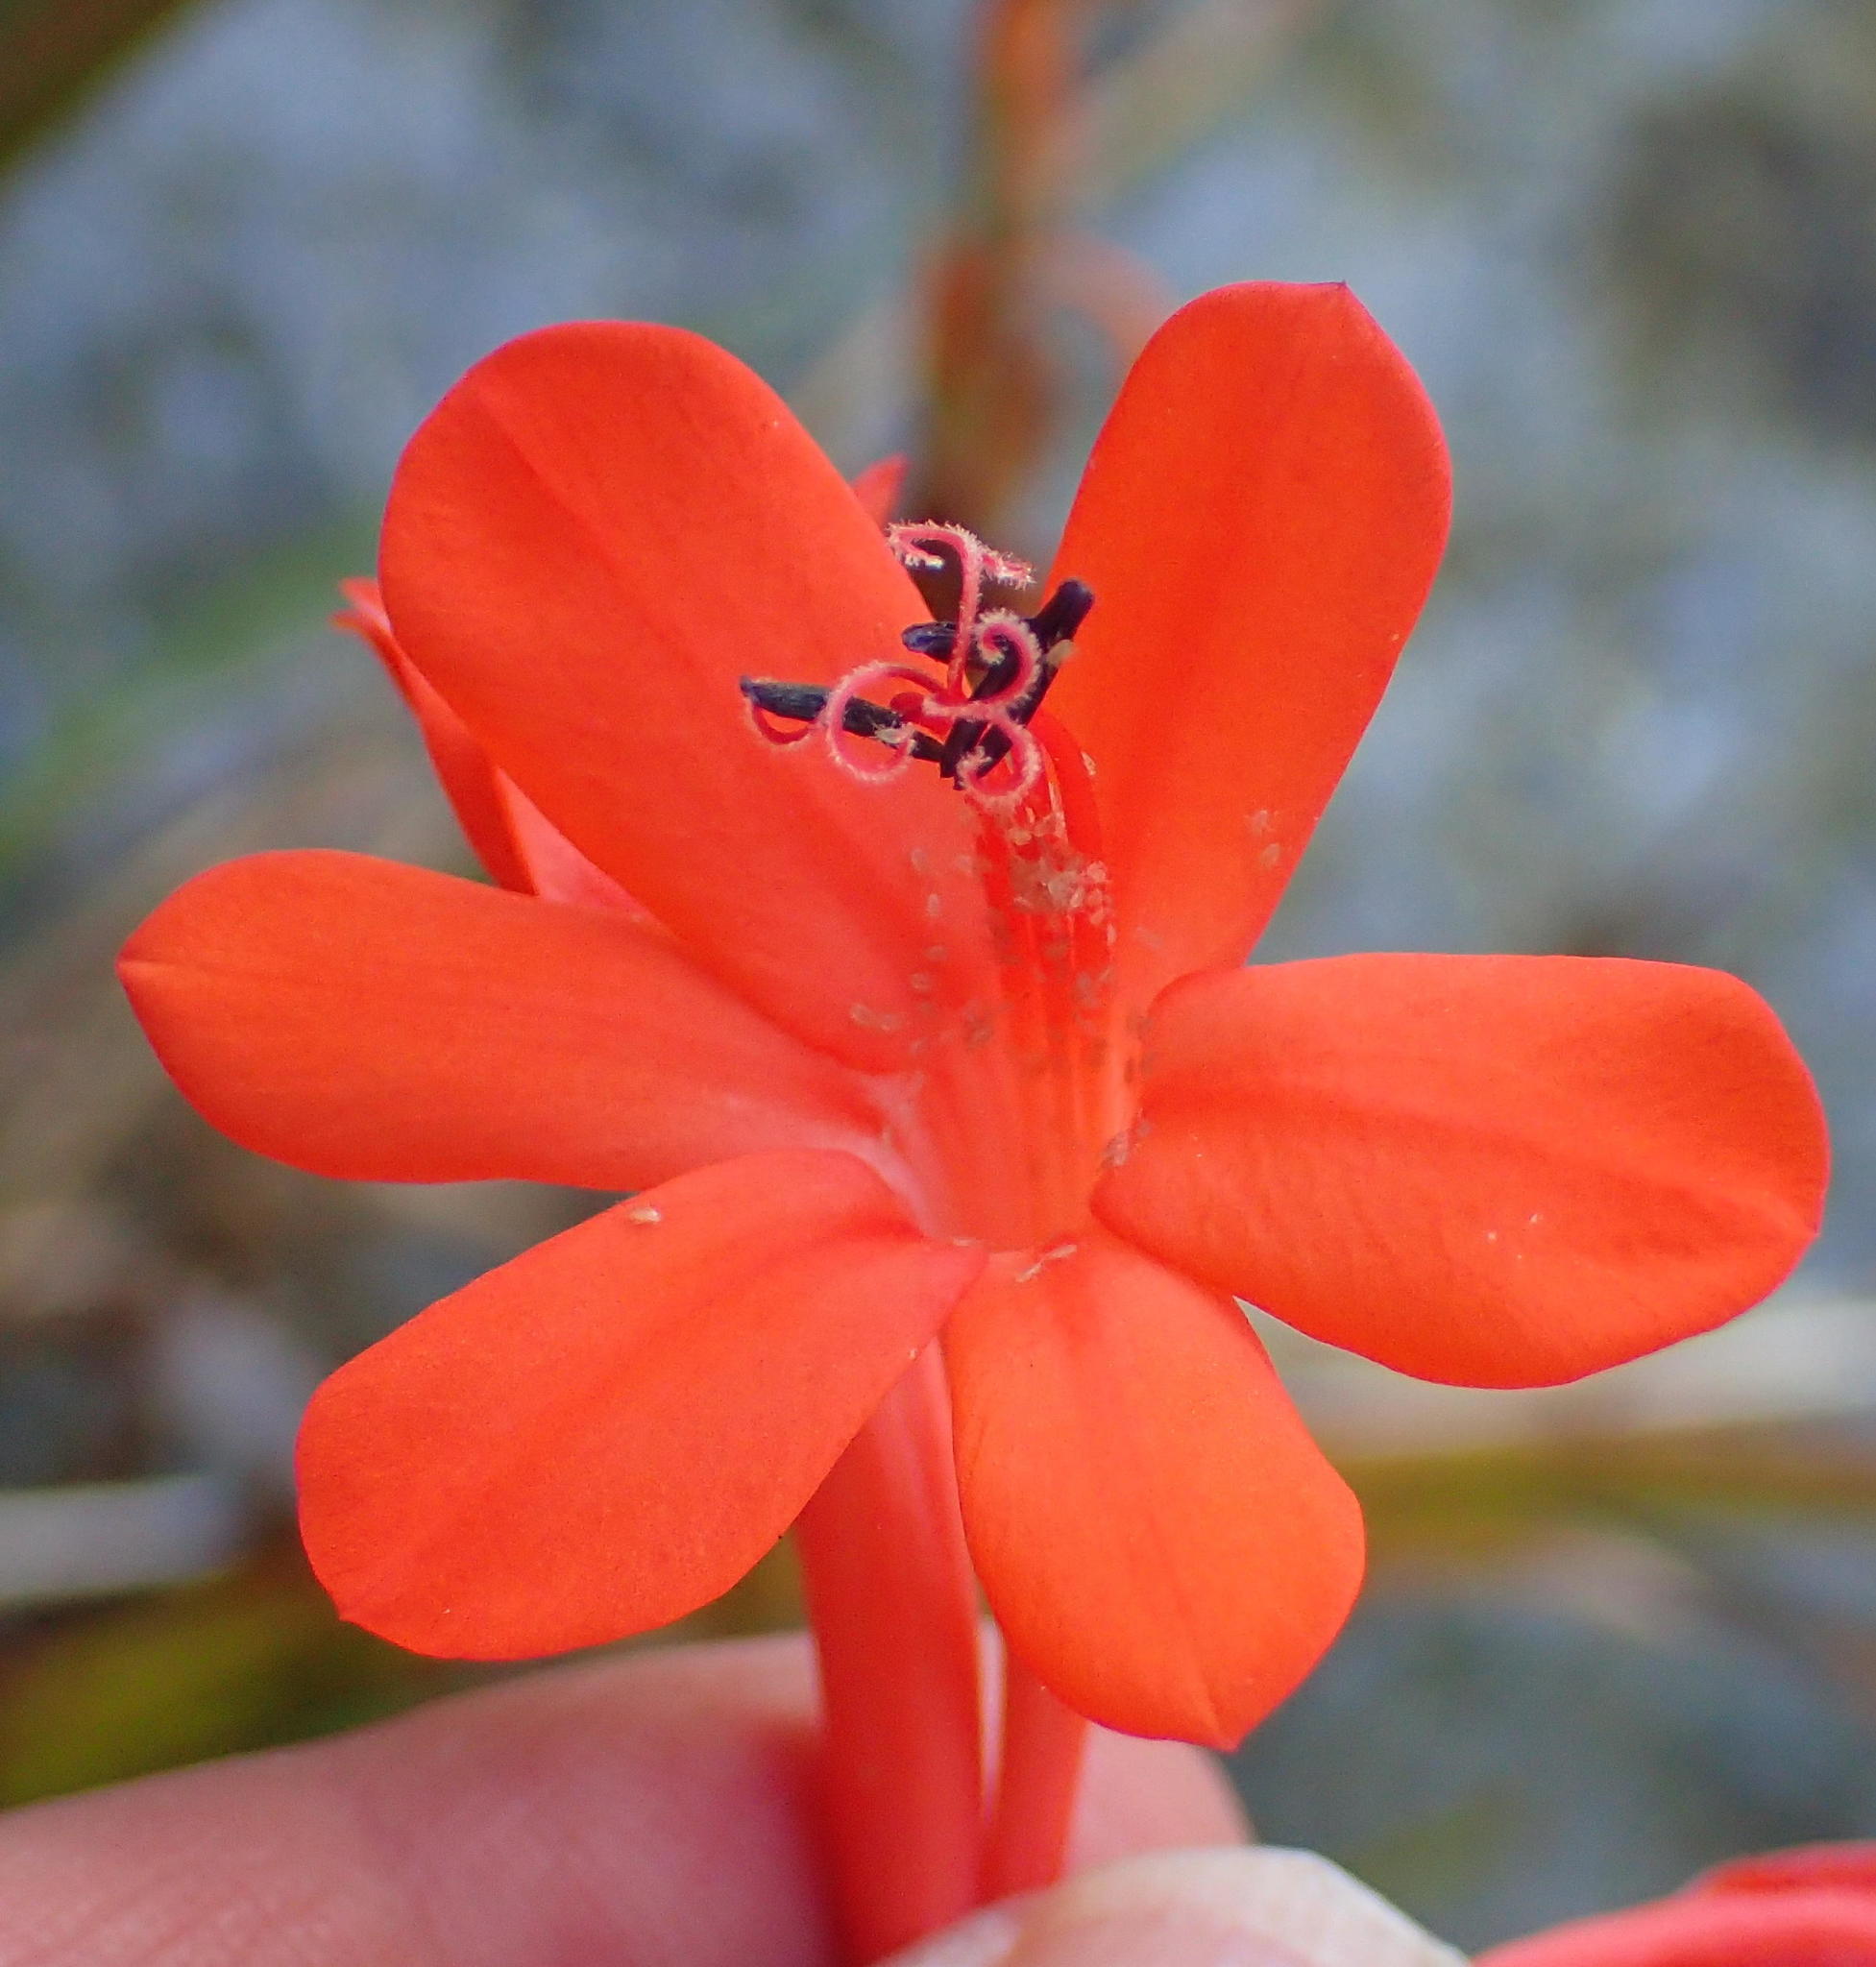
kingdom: Plantae
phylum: Tracheophyta
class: Liliopsida
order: Asparagales
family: Iridaceae
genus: Watsonia
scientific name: Watsonia schlechteri
